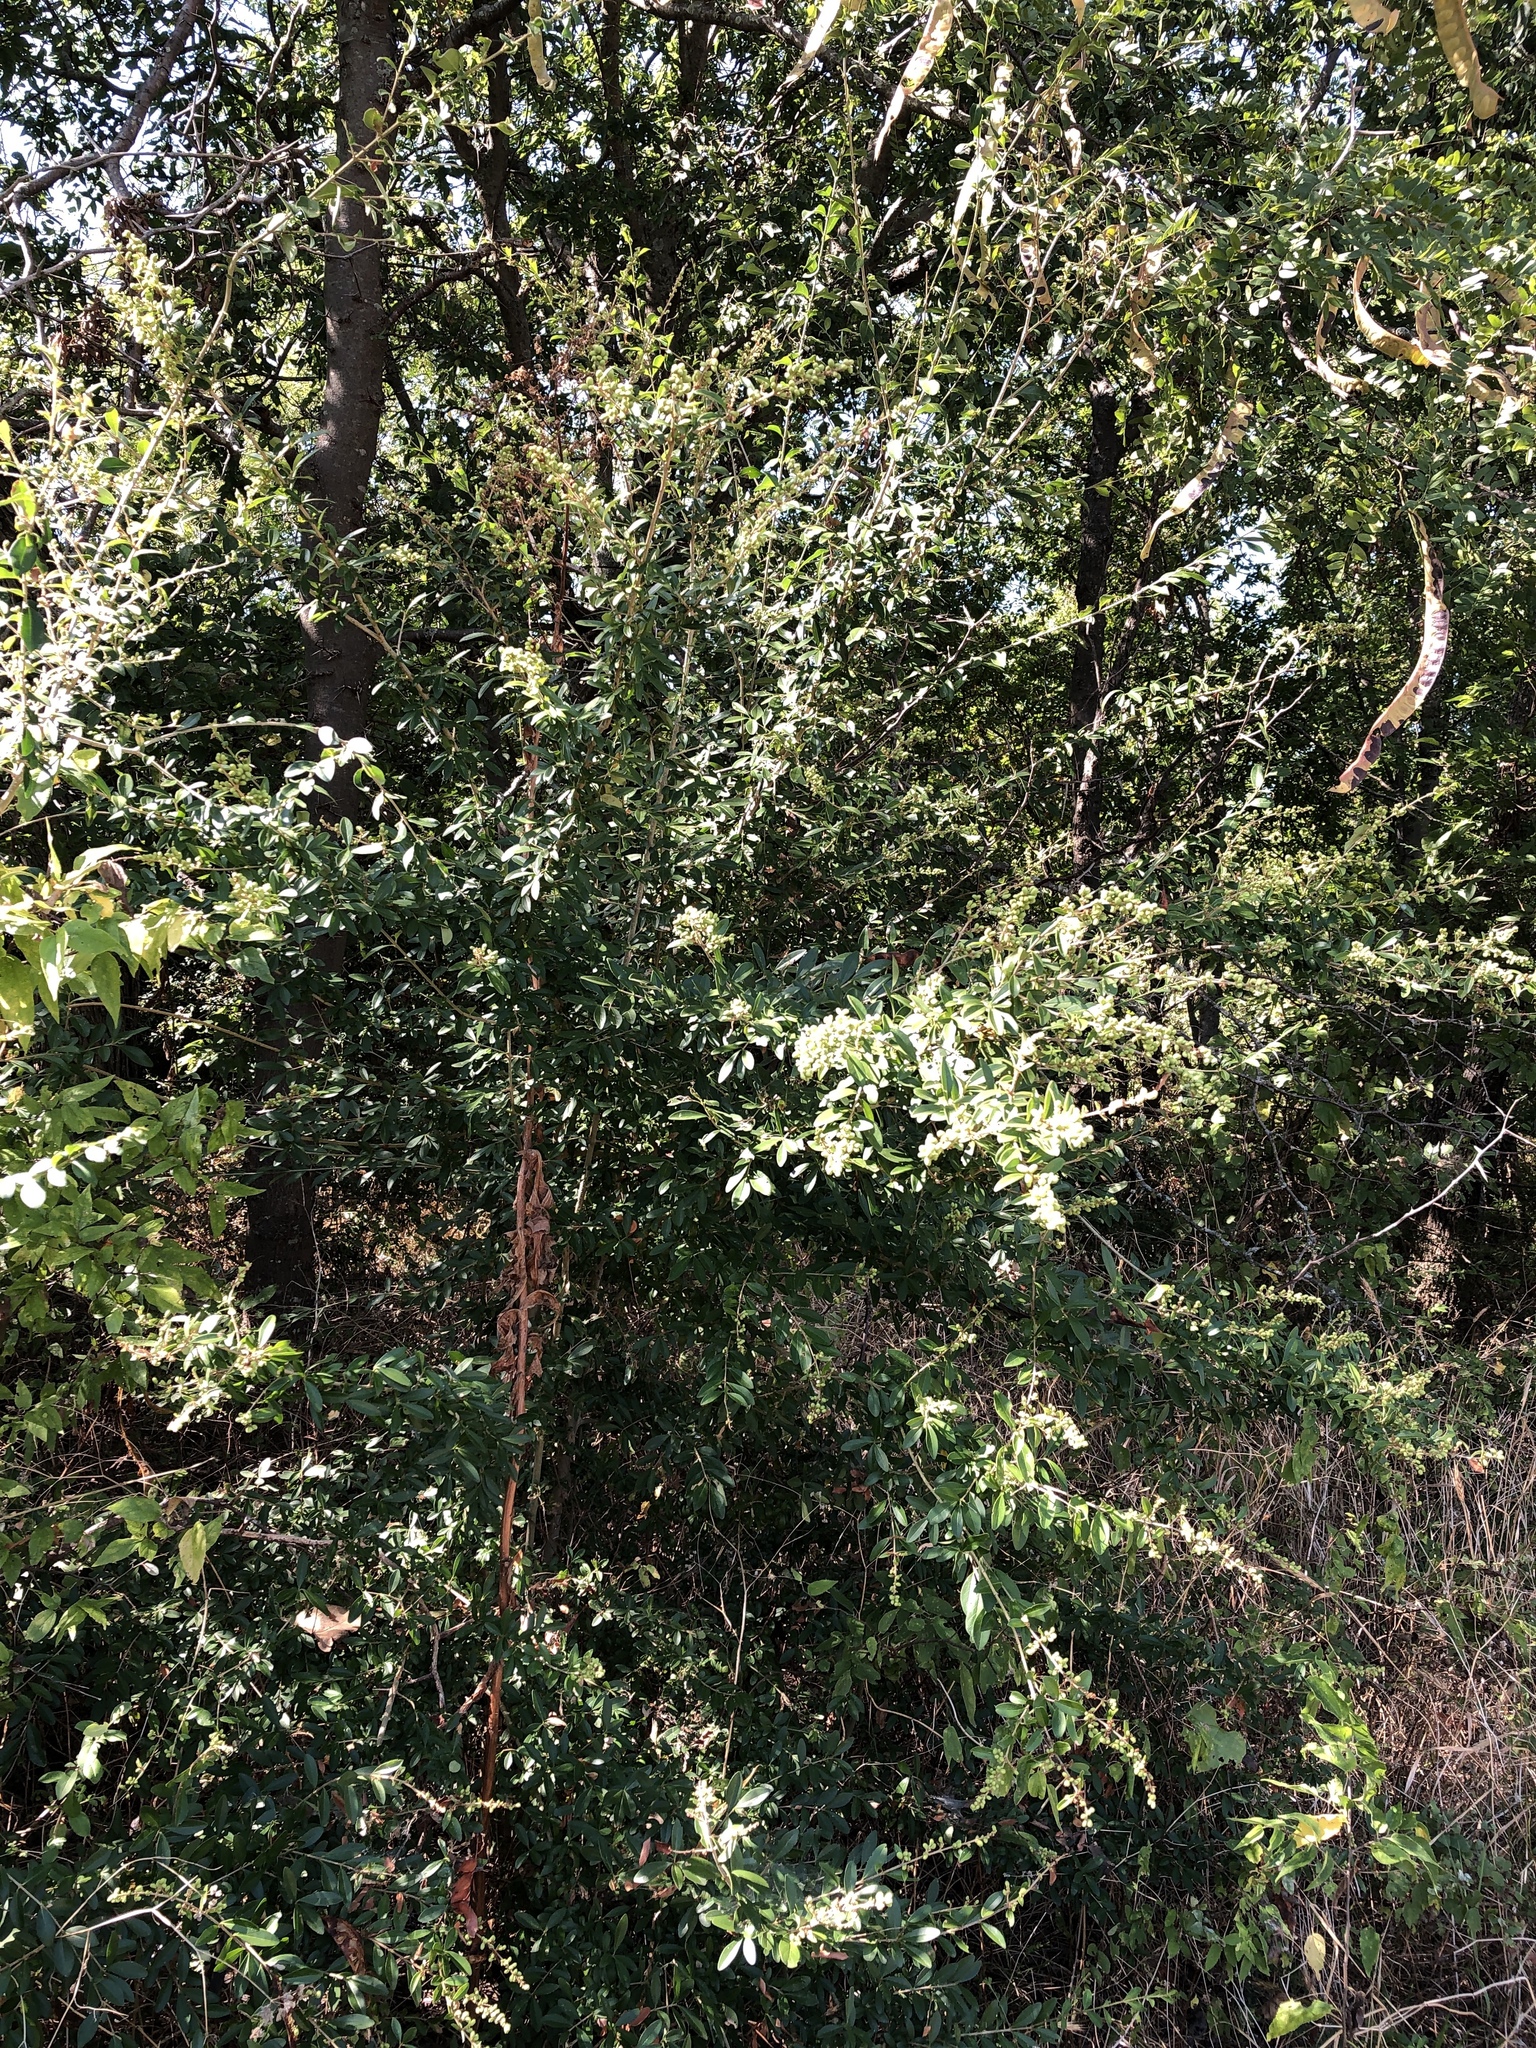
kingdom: Plantae
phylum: Tracheophyta
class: Magnoliopsida
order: Lamiales
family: Oleaceae
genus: Ligustrum
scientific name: Ligustrum quihoui
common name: Waxyleaf privet
